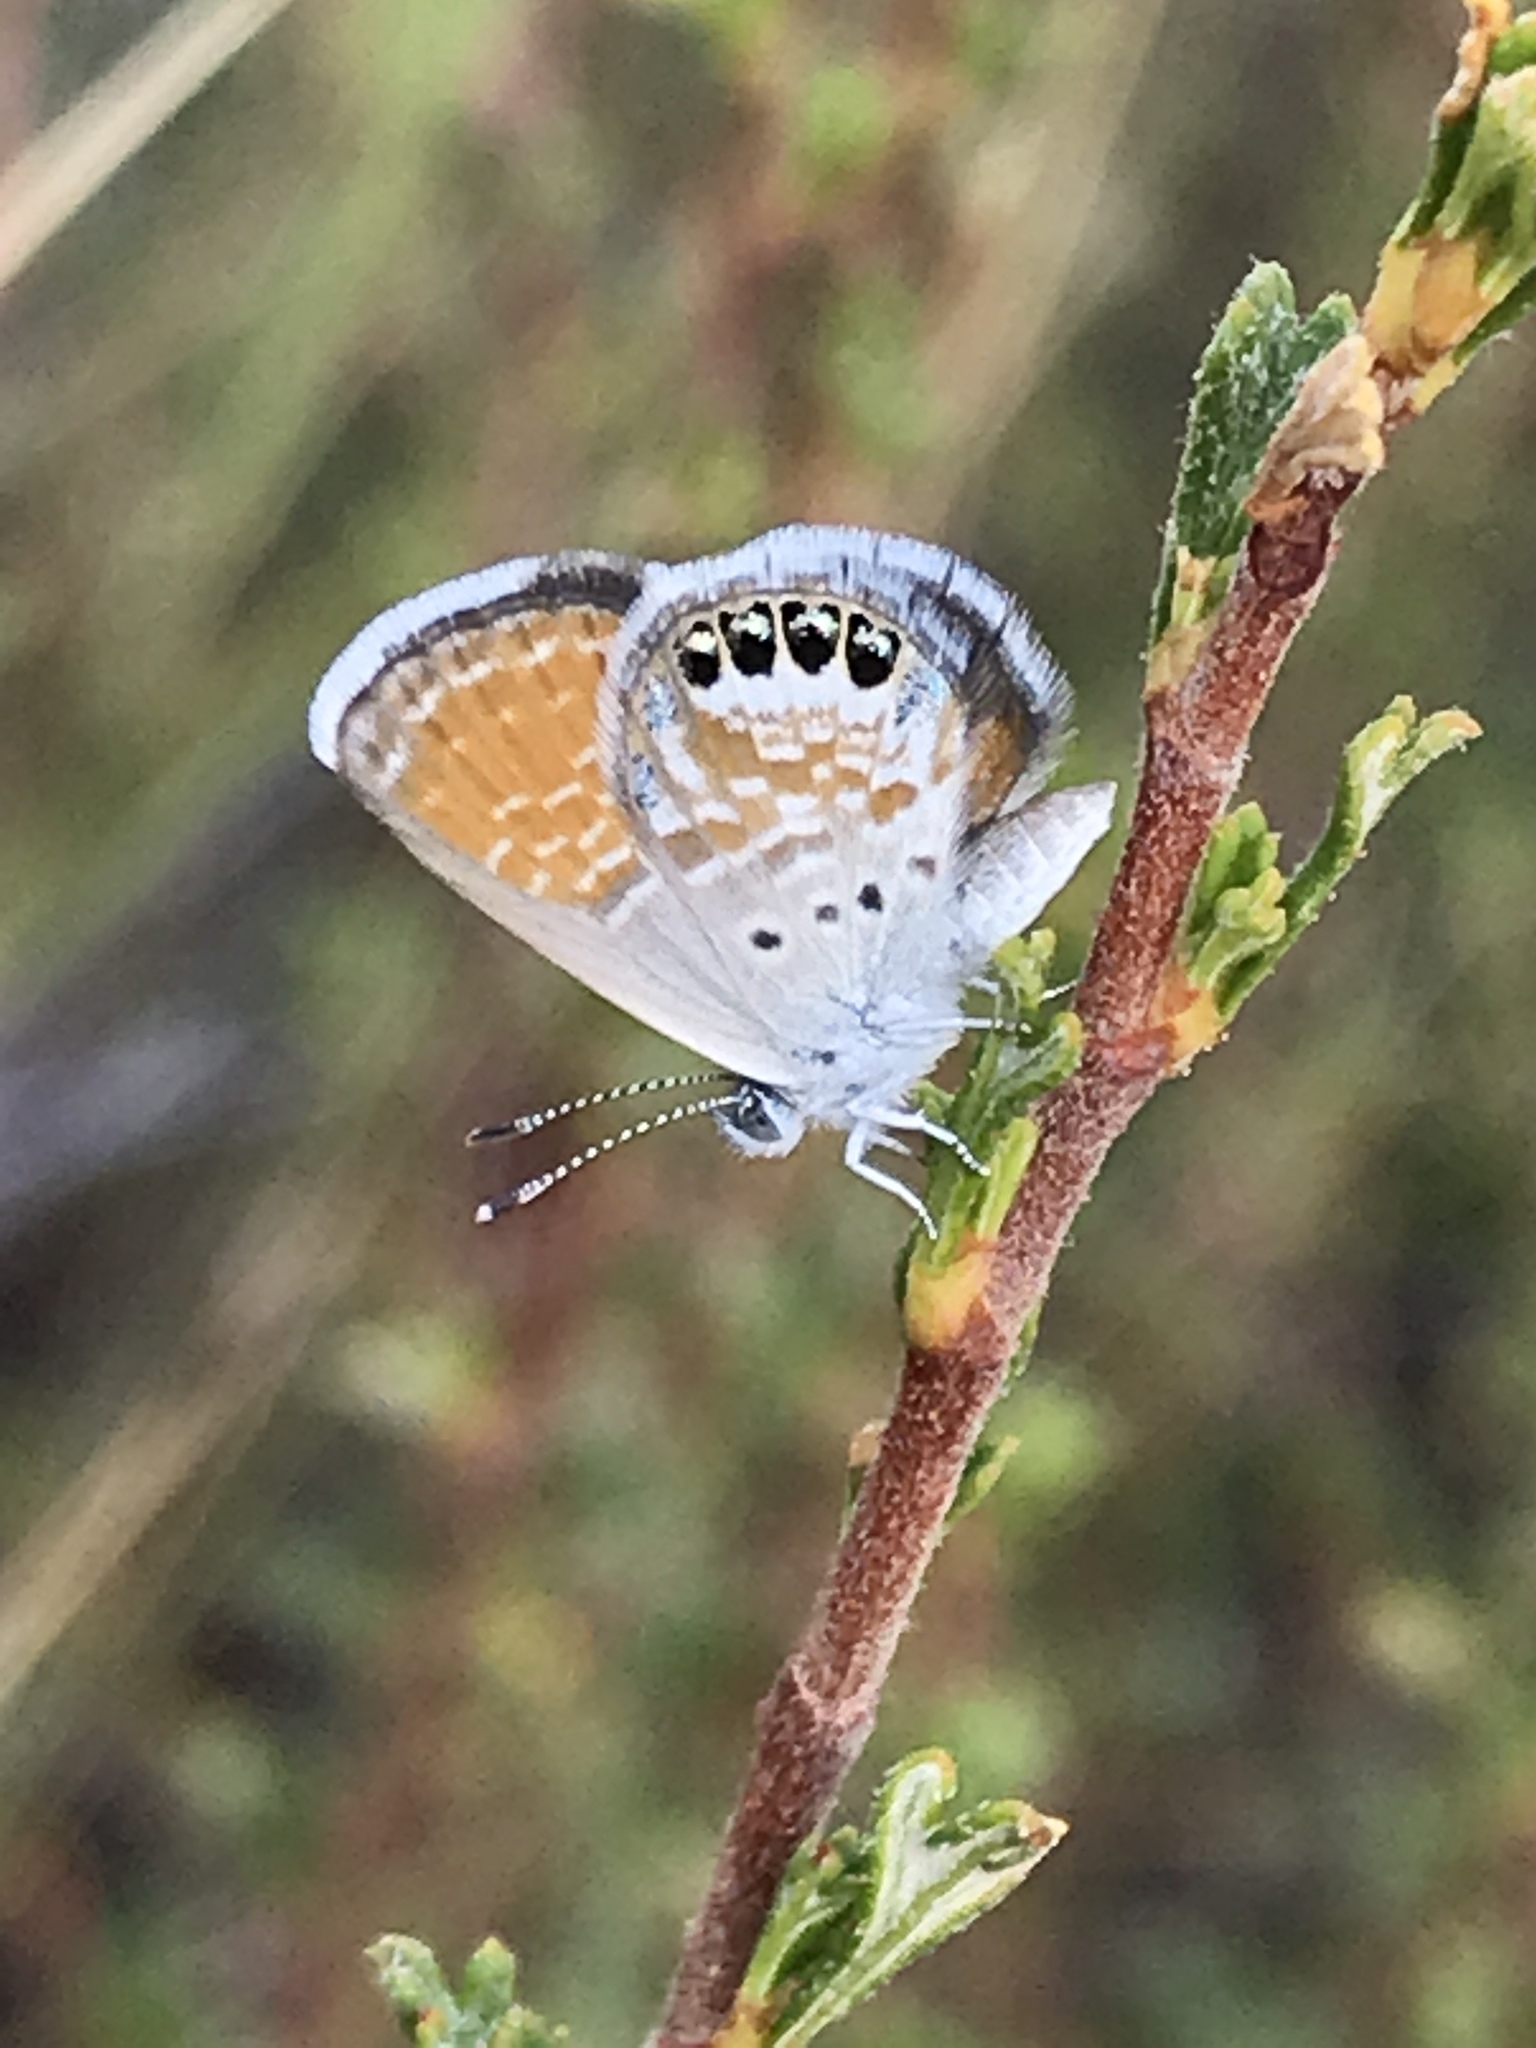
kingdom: Animalia
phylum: Arthropoda
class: Insecta
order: Lepidoptera
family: Lycaenidae
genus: Brephidium
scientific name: Brephidium exilis
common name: Pygmy blue
